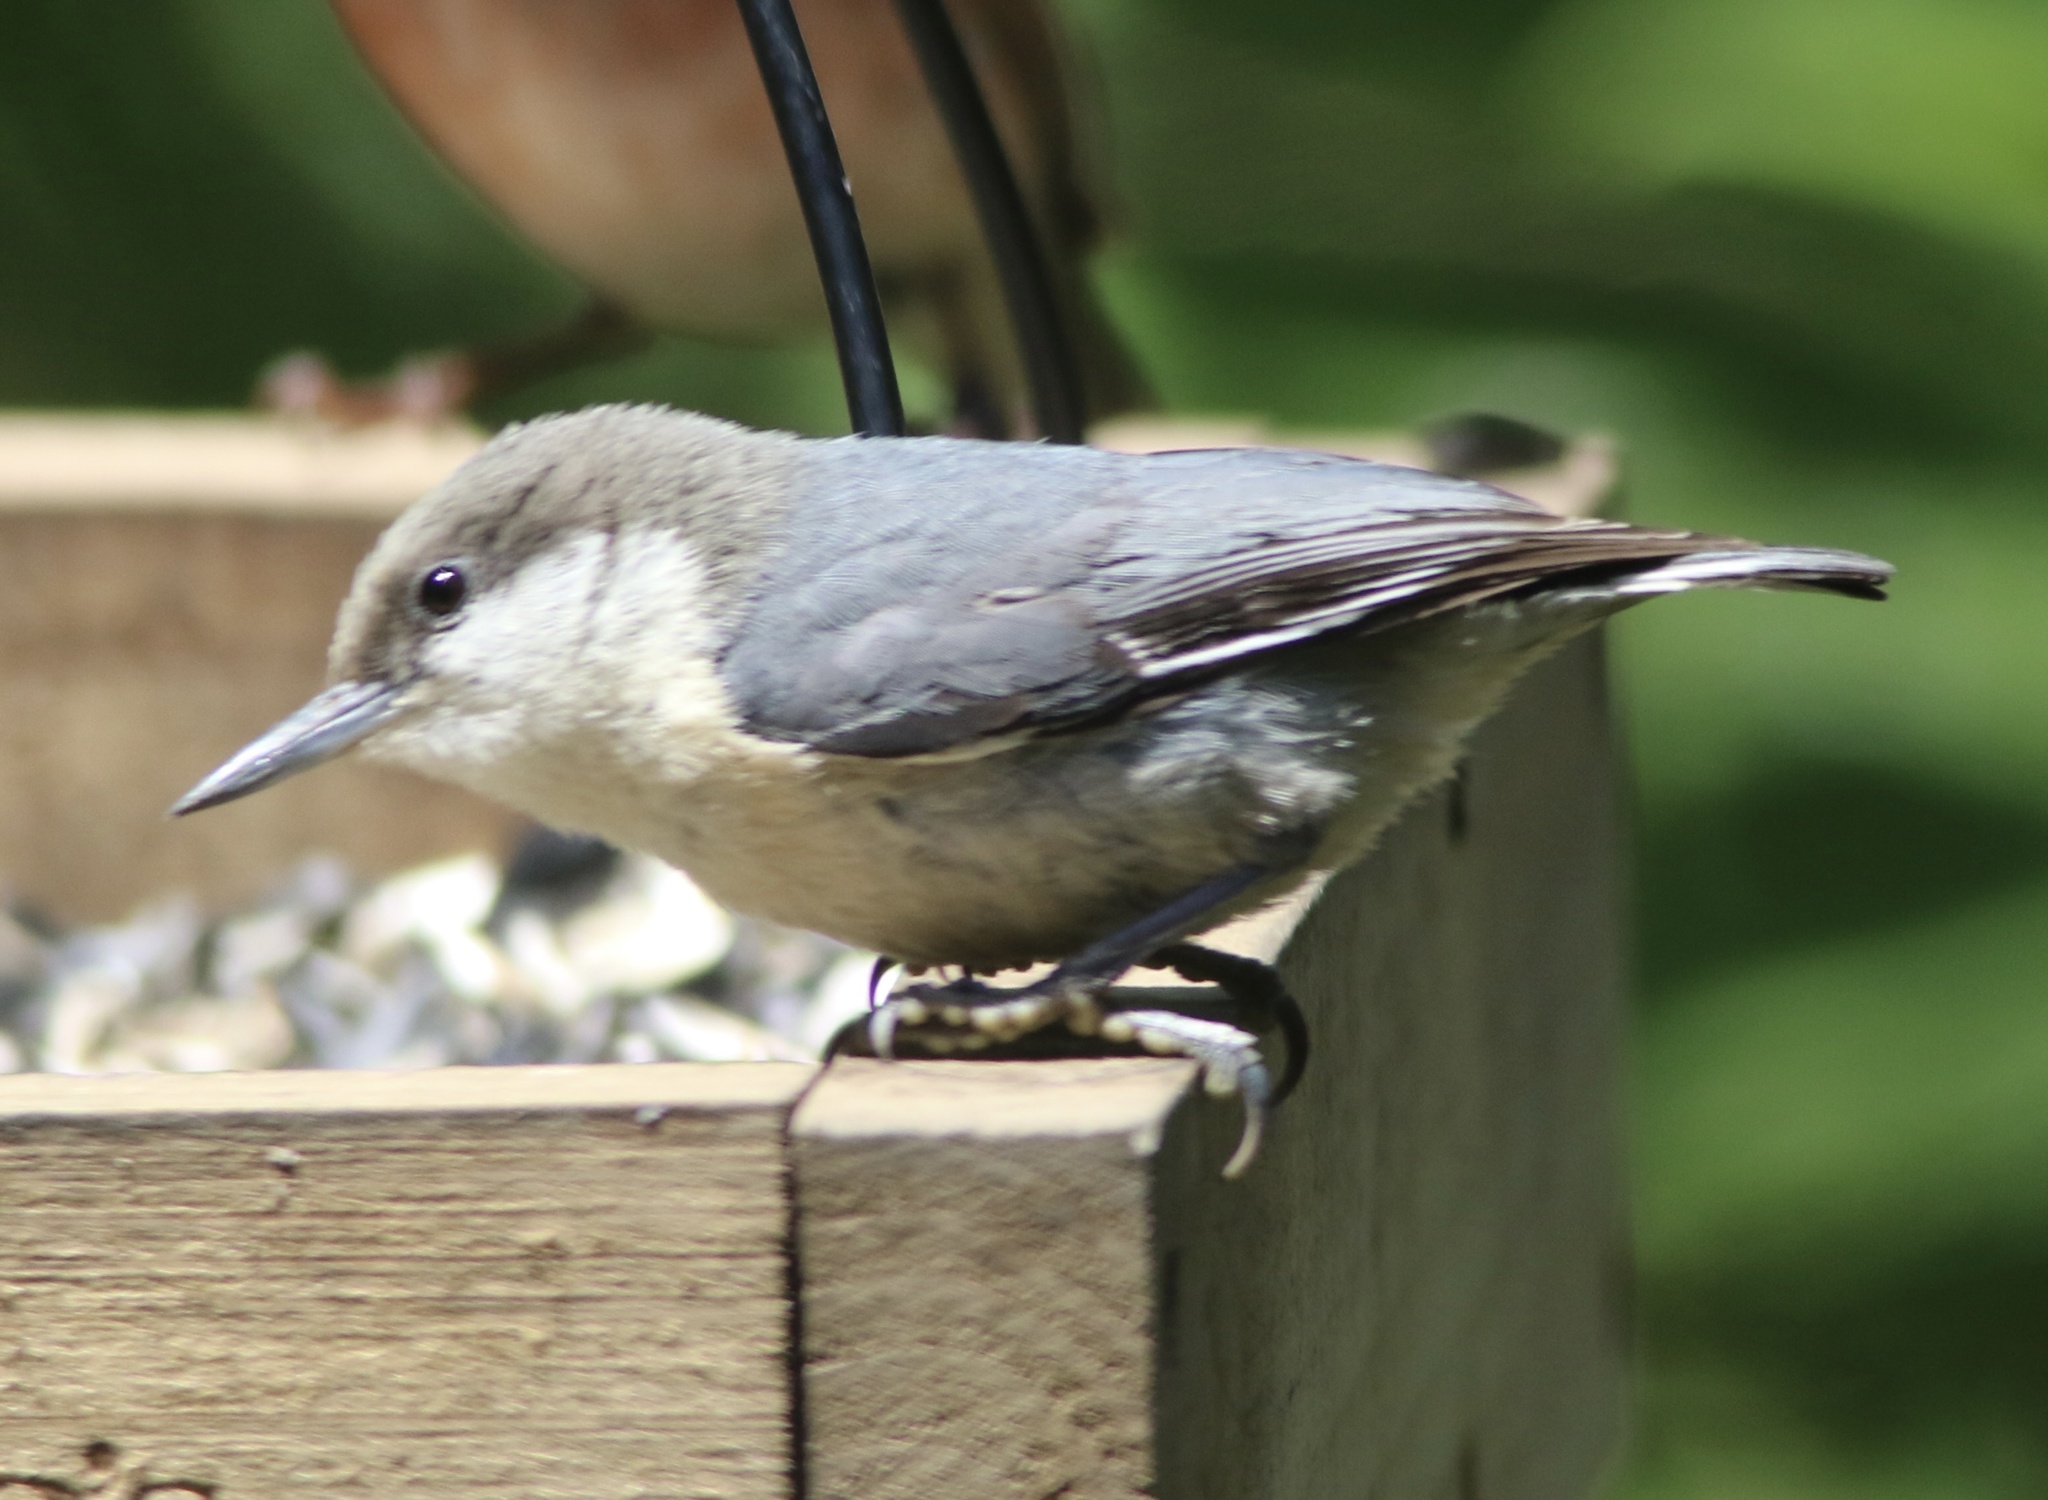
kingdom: Animalia
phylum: Chordata
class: Aves
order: Passeriformes
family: Sittidae
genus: Sitta
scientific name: Sitta pygmaea
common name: Pygmy nuthatch
